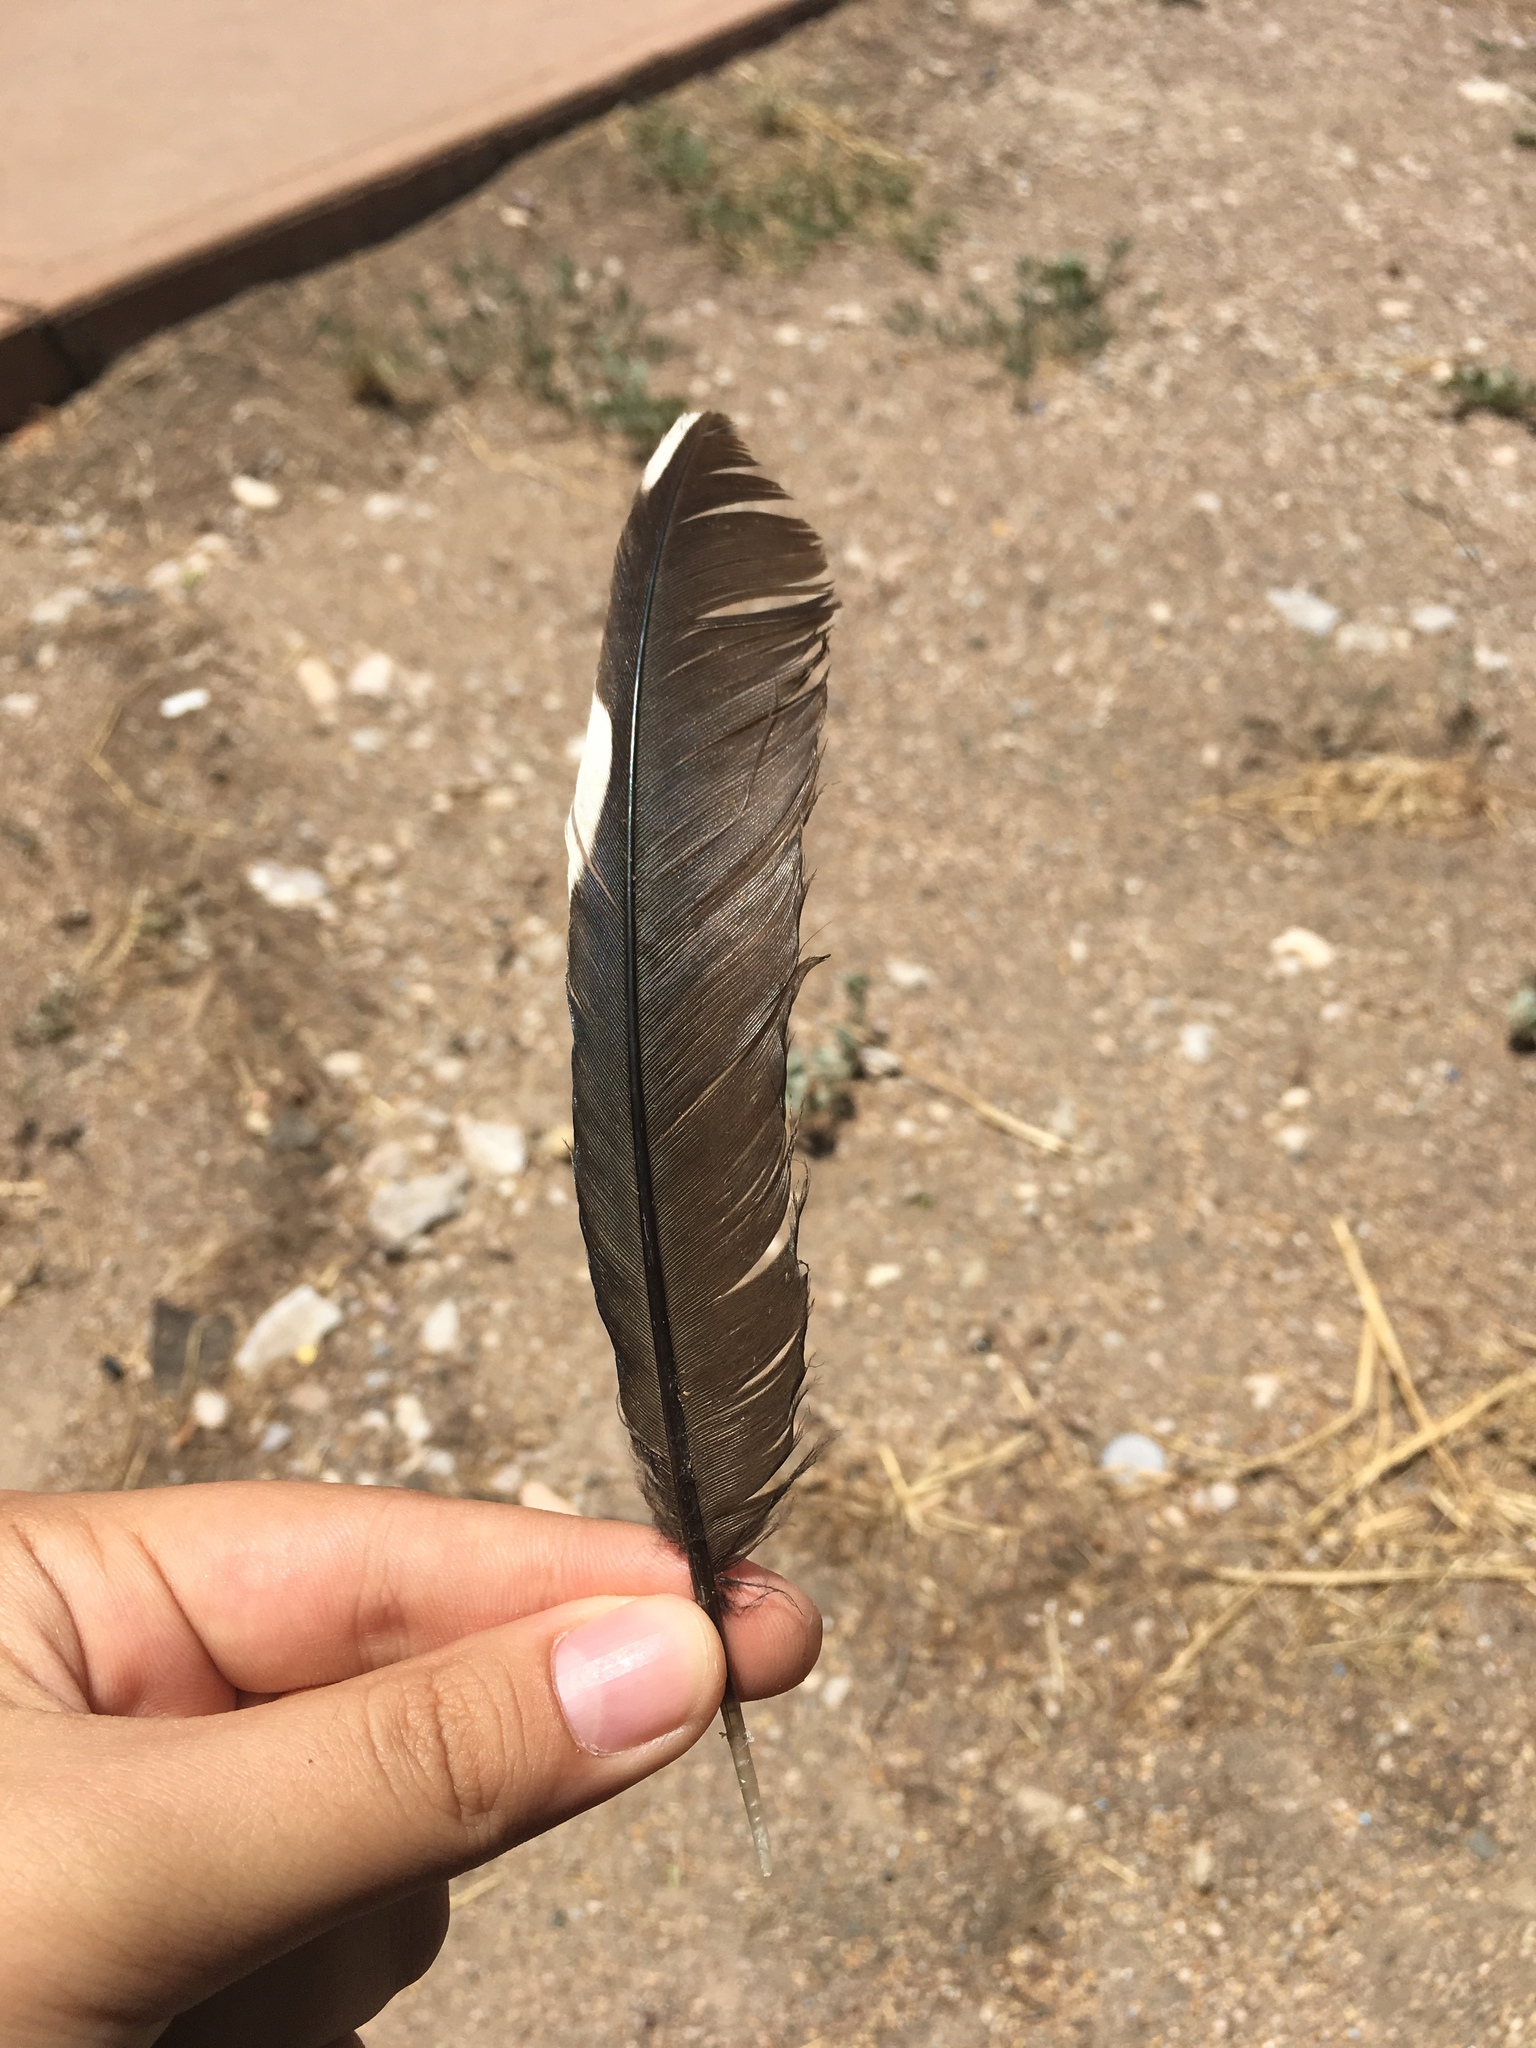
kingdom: Animalia
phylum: Chordata
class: Aves
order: Cuculiformes
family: Cuculidae
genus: Geococcyx
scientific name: Geococcyx californianus
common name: Greater roadrunner
